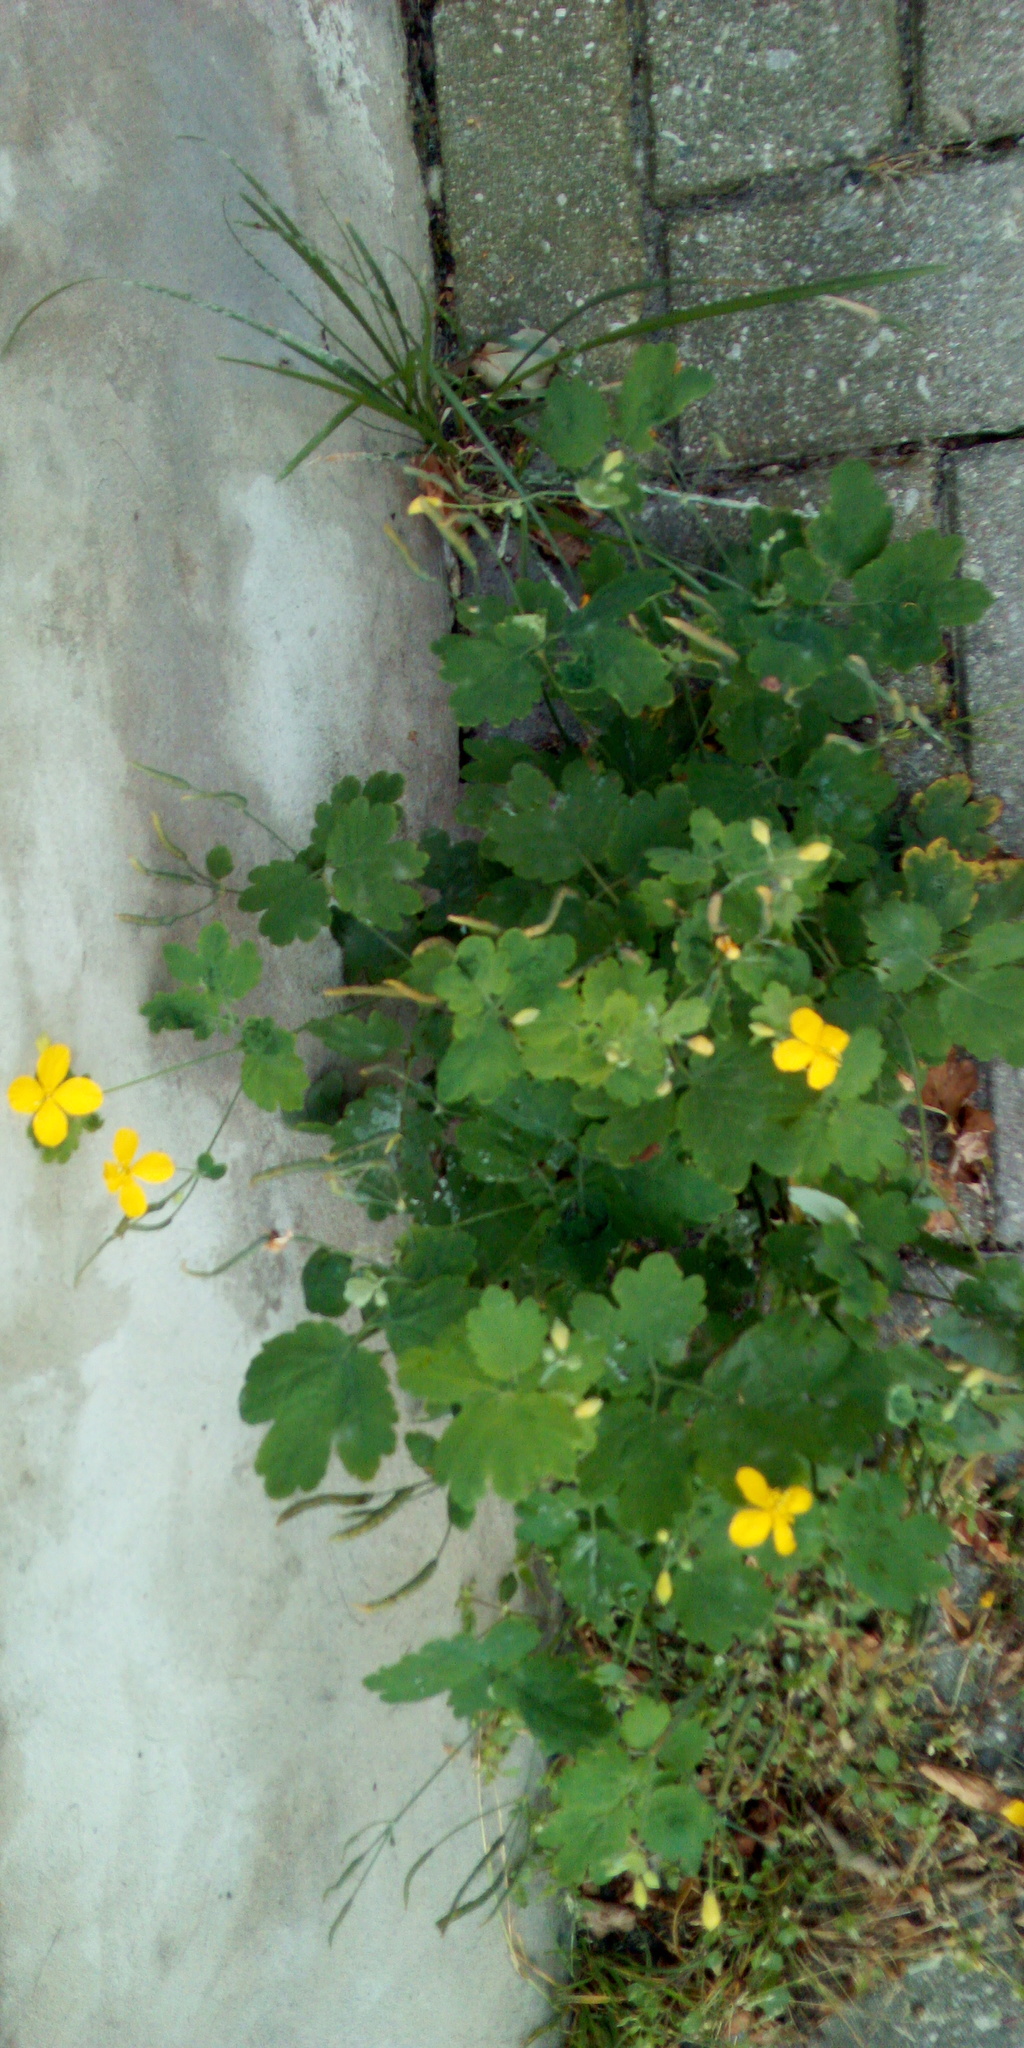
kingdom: Plantae
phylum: Tracheophyta
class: Magnoliopsida
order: Ranunculales
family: Papaveraceae
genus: Chelidonium
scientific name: Chelidonium majus
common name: Greater celandine
